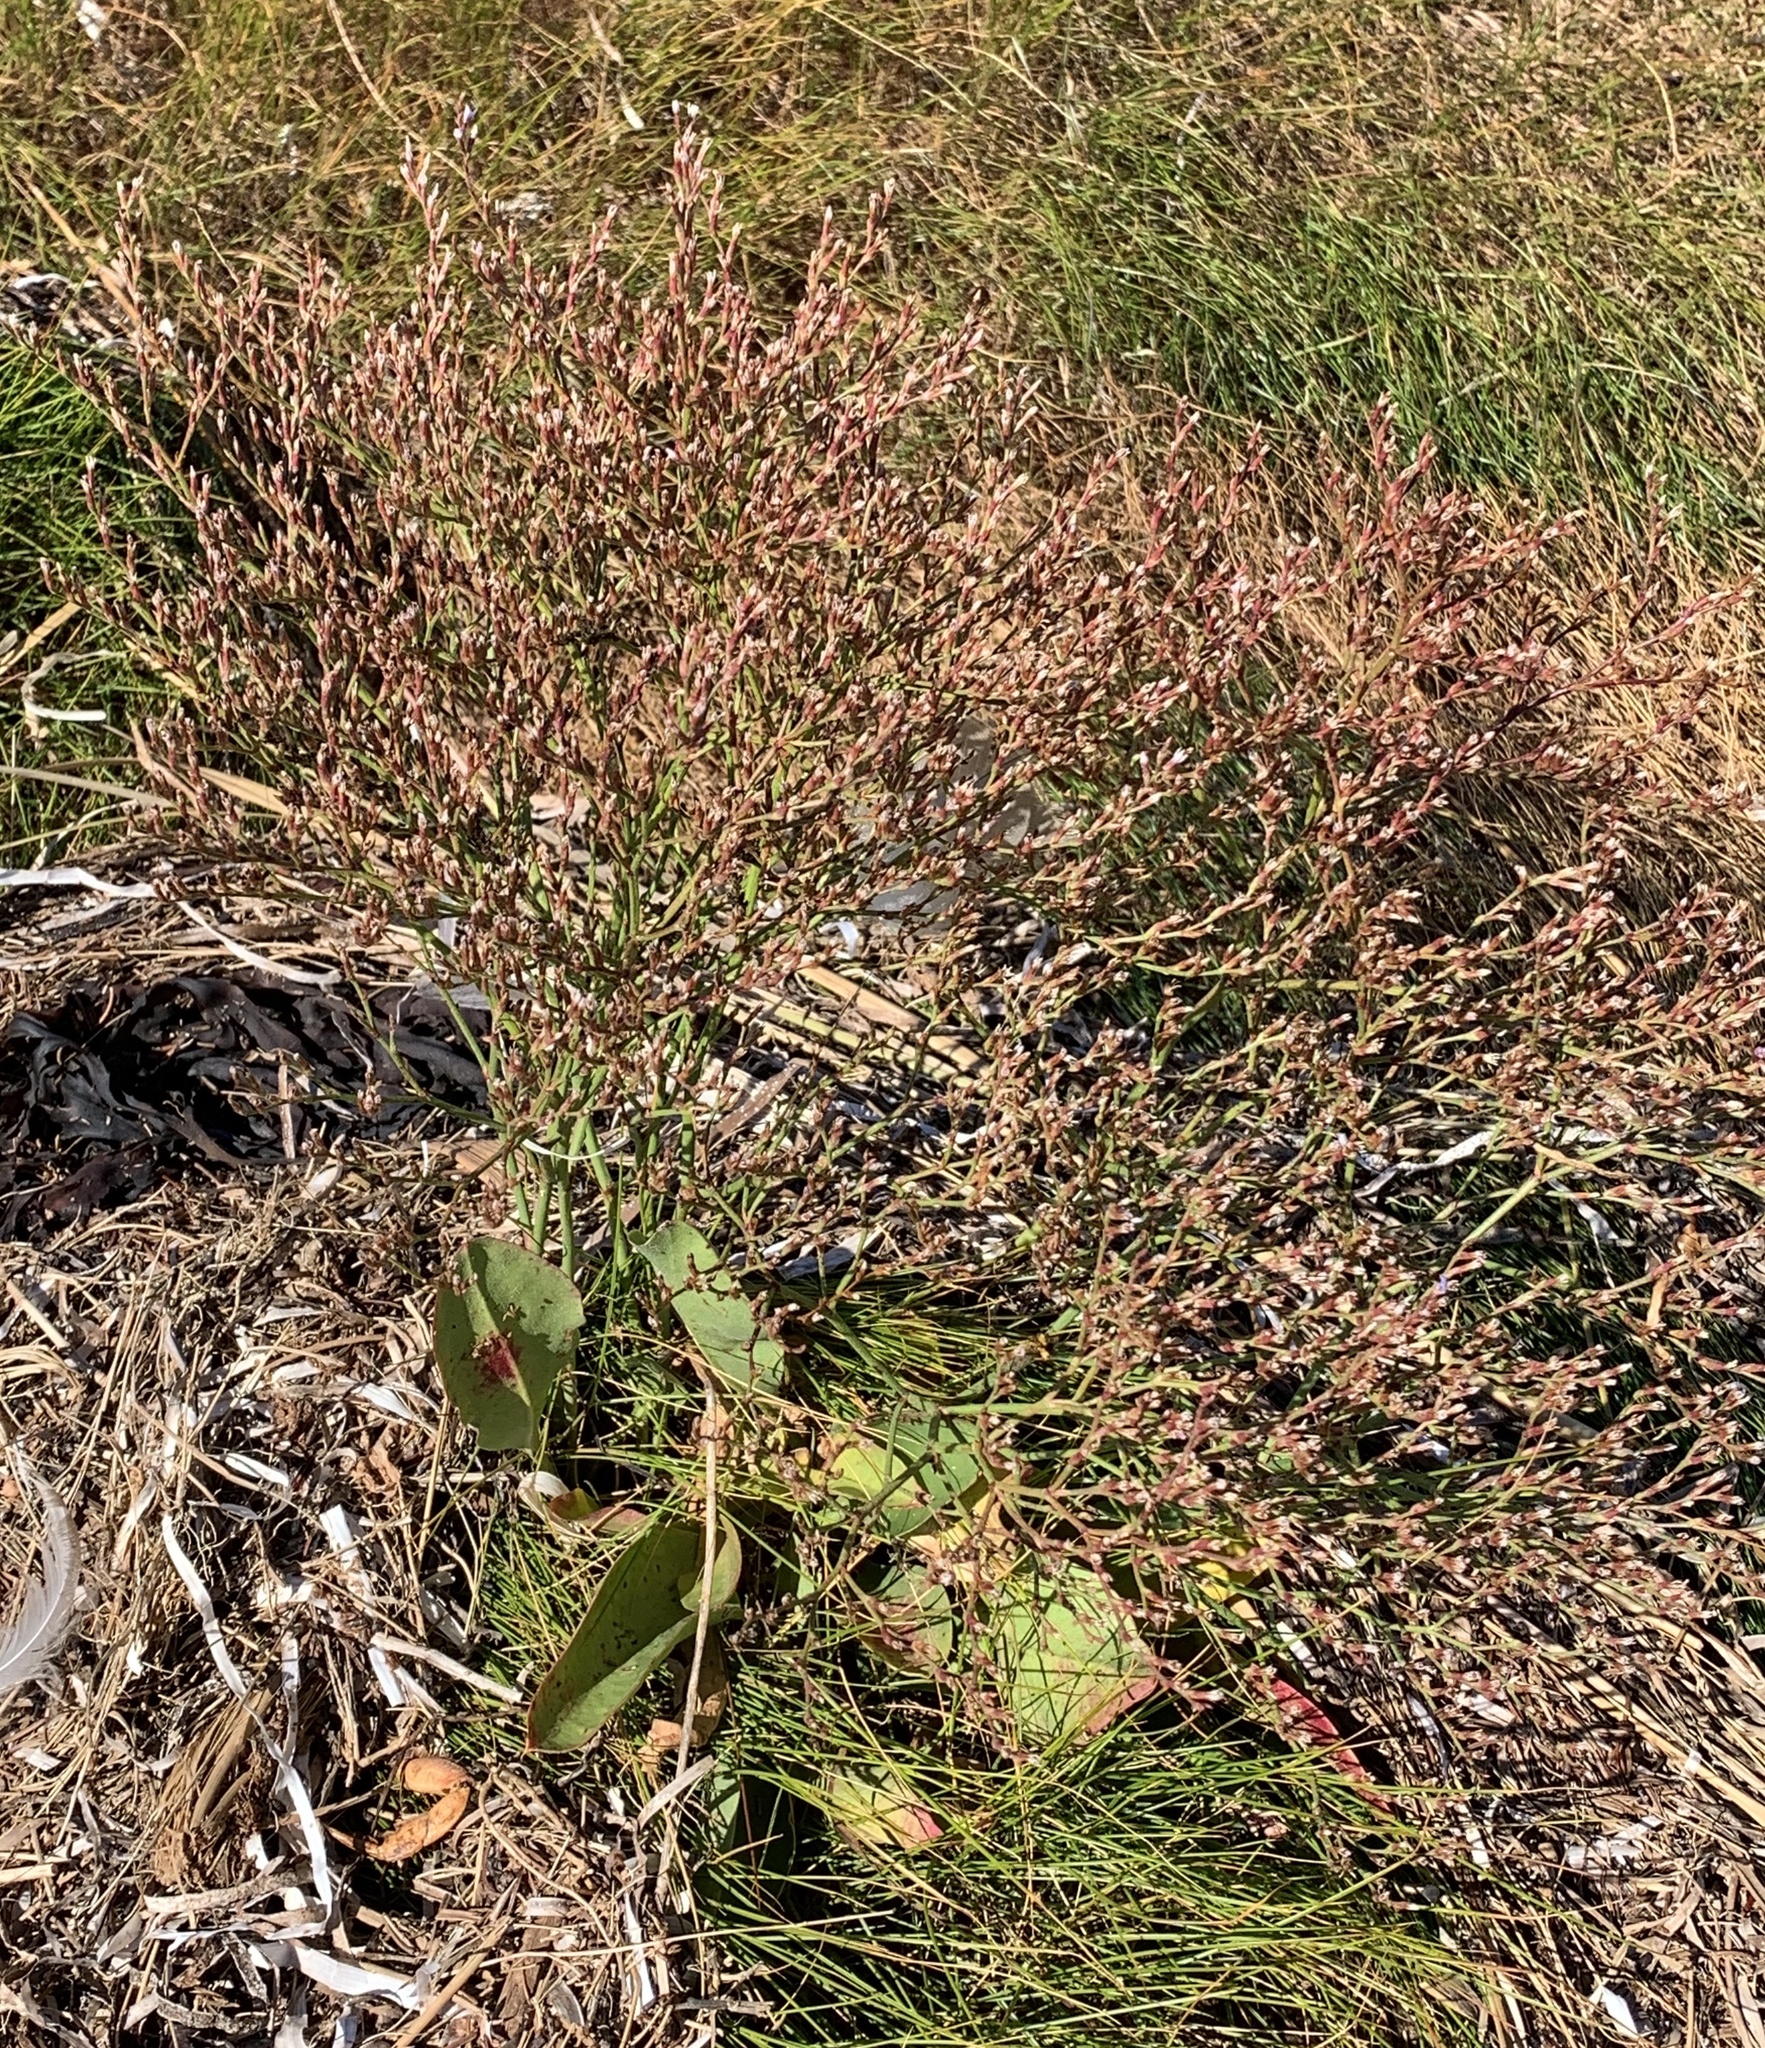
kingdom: Plantae
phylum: Tracheophyta
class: Magnoliopsida
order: Caryophyllales
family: Plumbaginaceae
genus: Limonium
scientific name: Limonium carolinianum
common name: Carolina sea lavender
